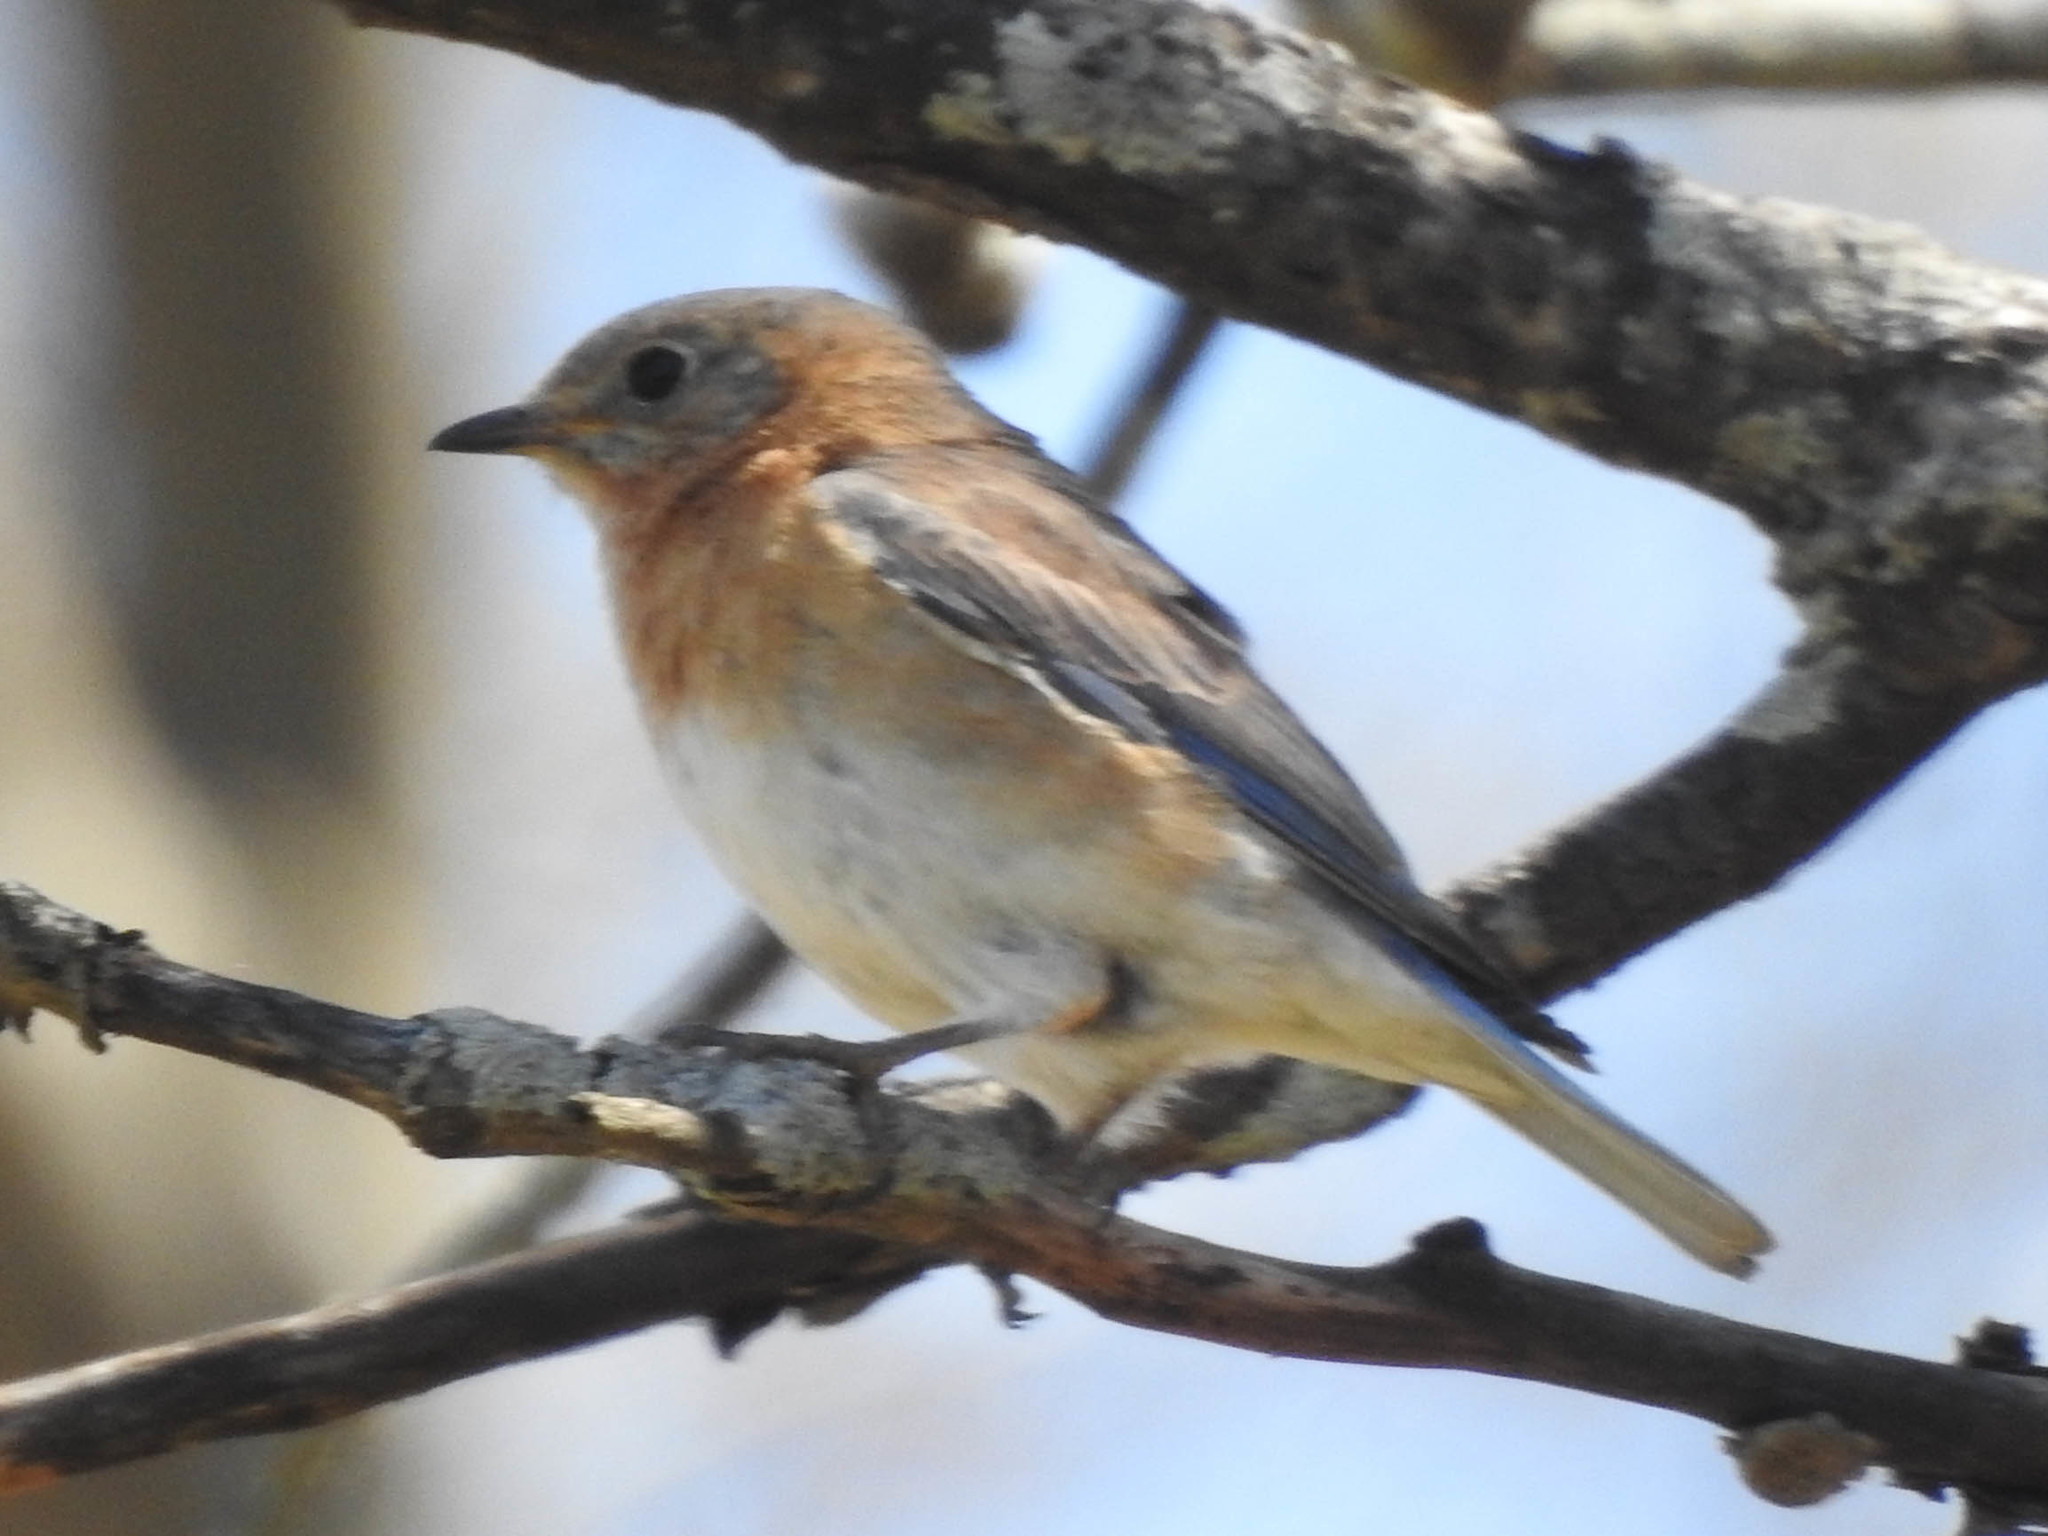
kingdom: Animalia
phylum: Chordata
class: Aves
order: Passeriformes
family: Turdidae
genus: Sialia
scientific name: Sialia sialis
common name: Eastern bluebird
